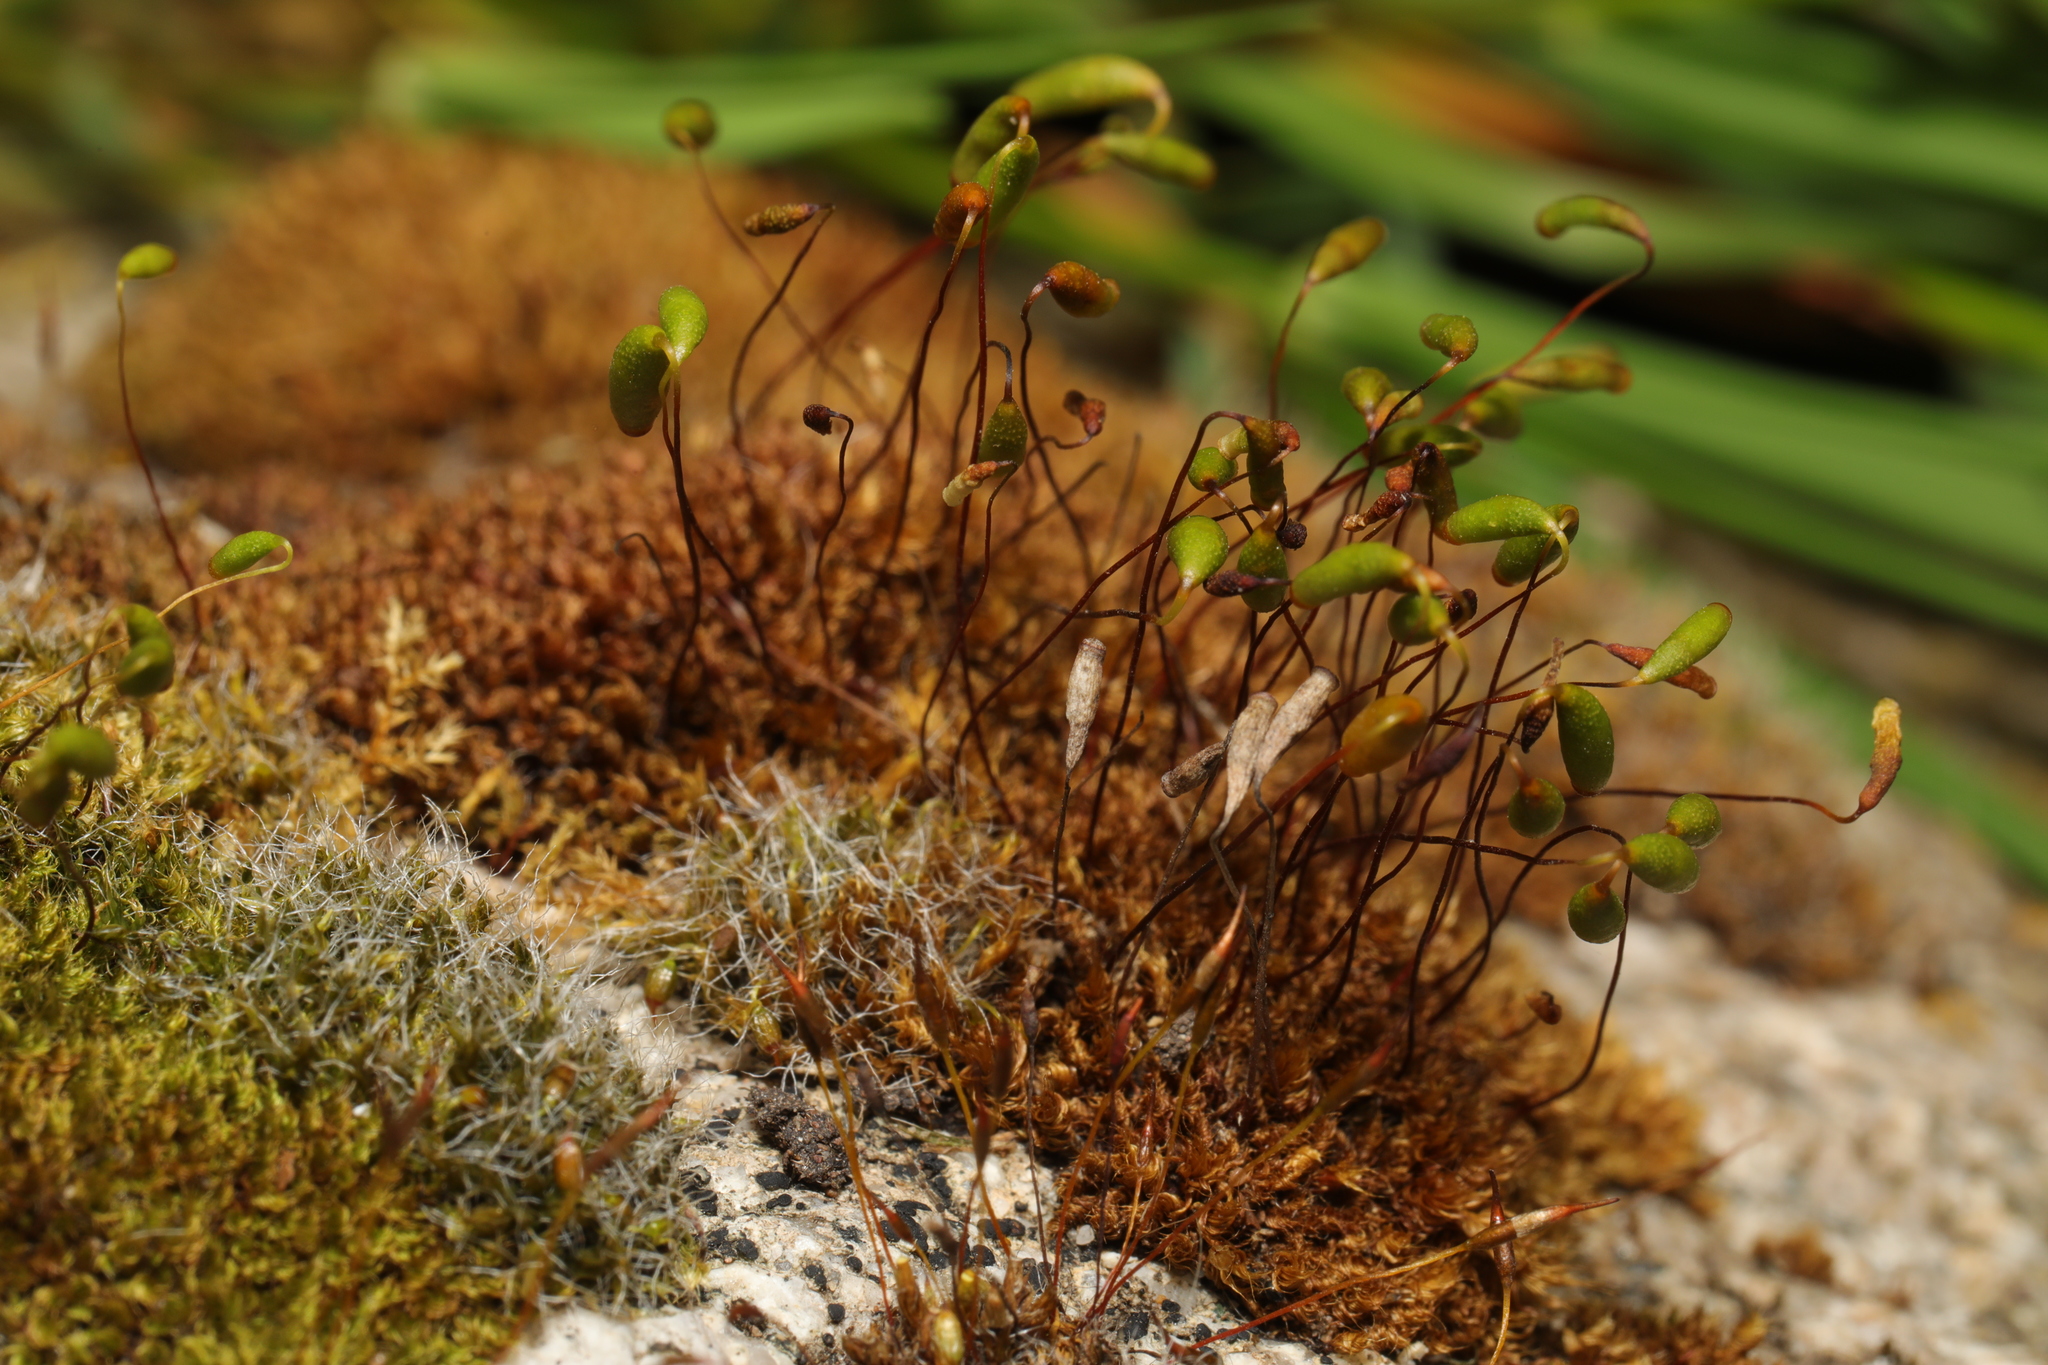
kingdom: Plantae
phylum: Bryophyta
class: Bryopsida
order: Bryales
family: Bryaceae
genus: Rosulabryum
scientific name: Rosulabryum capillare
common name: Capillary thread-moss
